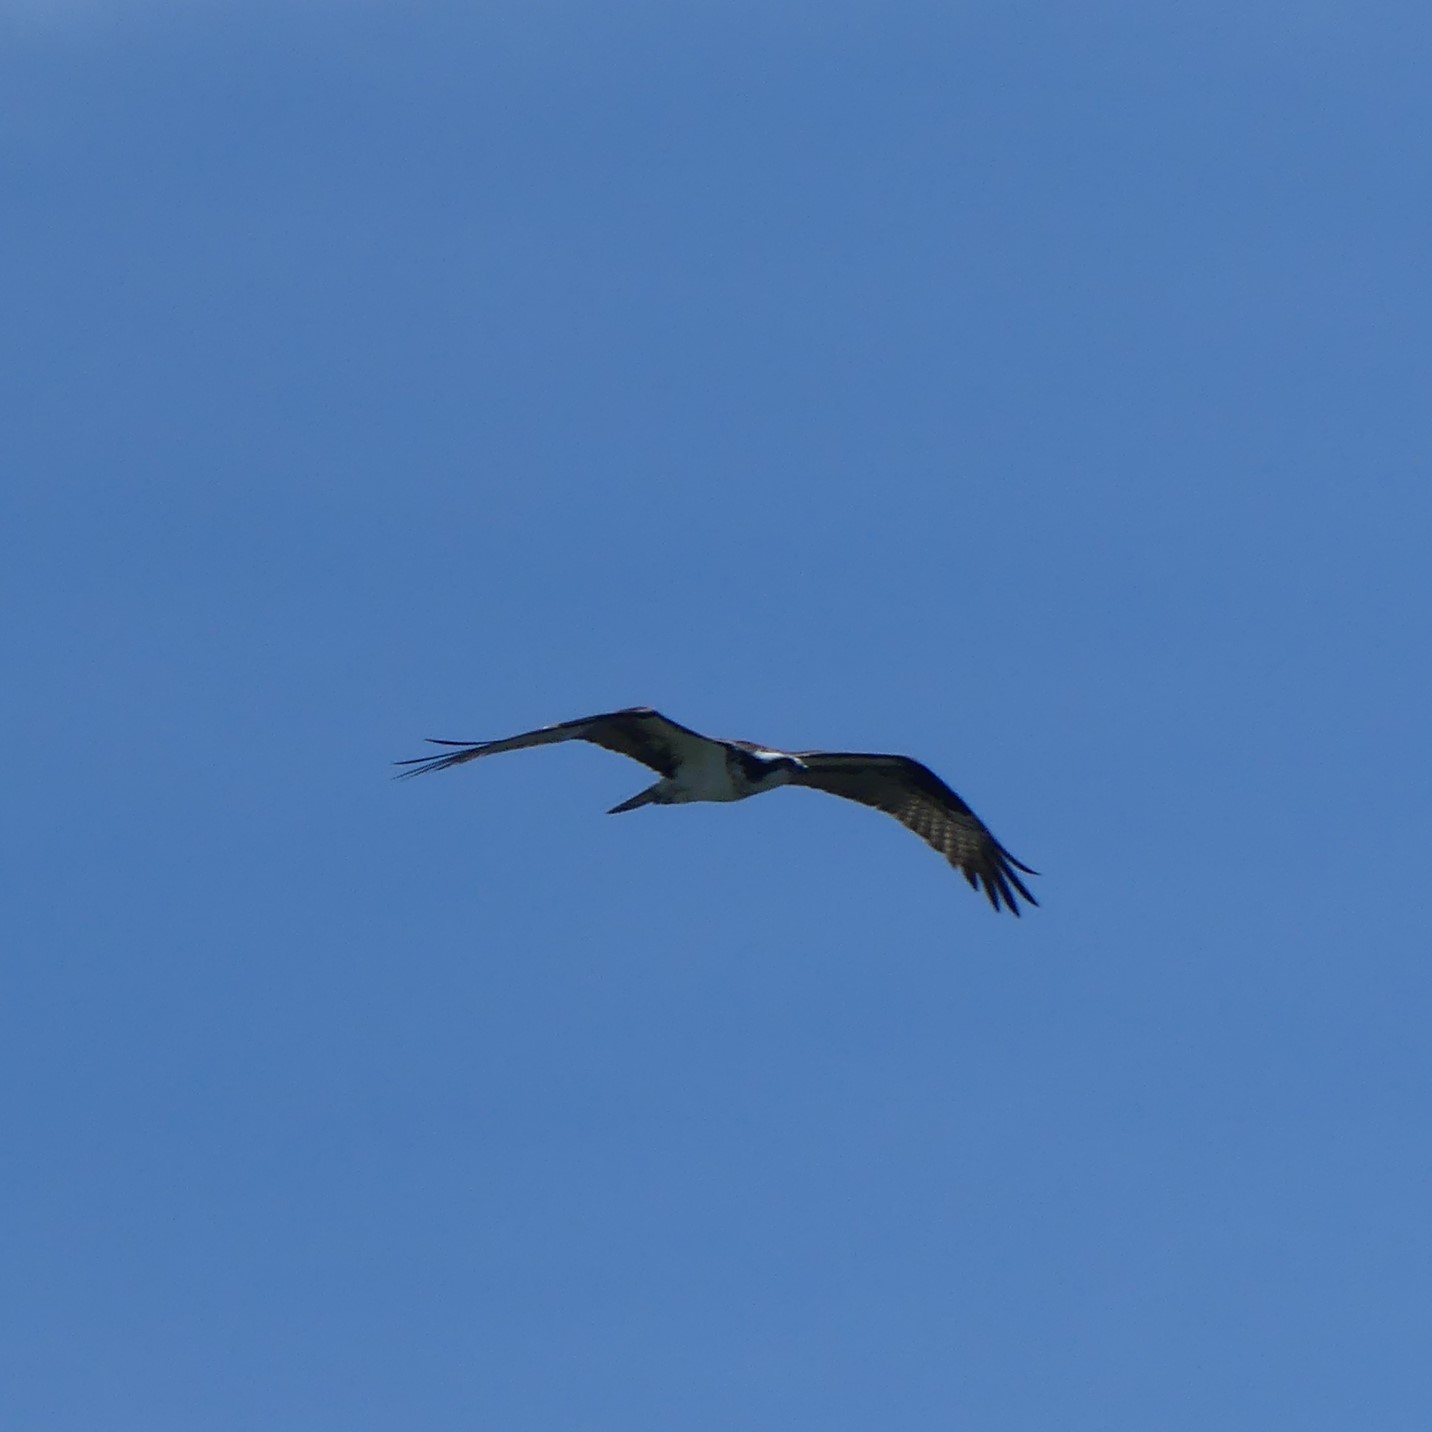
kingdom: Animalia
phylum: Chordata
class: Aves
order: Accipitriformes
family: Pandionidae
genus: Pandion
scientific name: Pandion haliaetus
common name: Osprey
